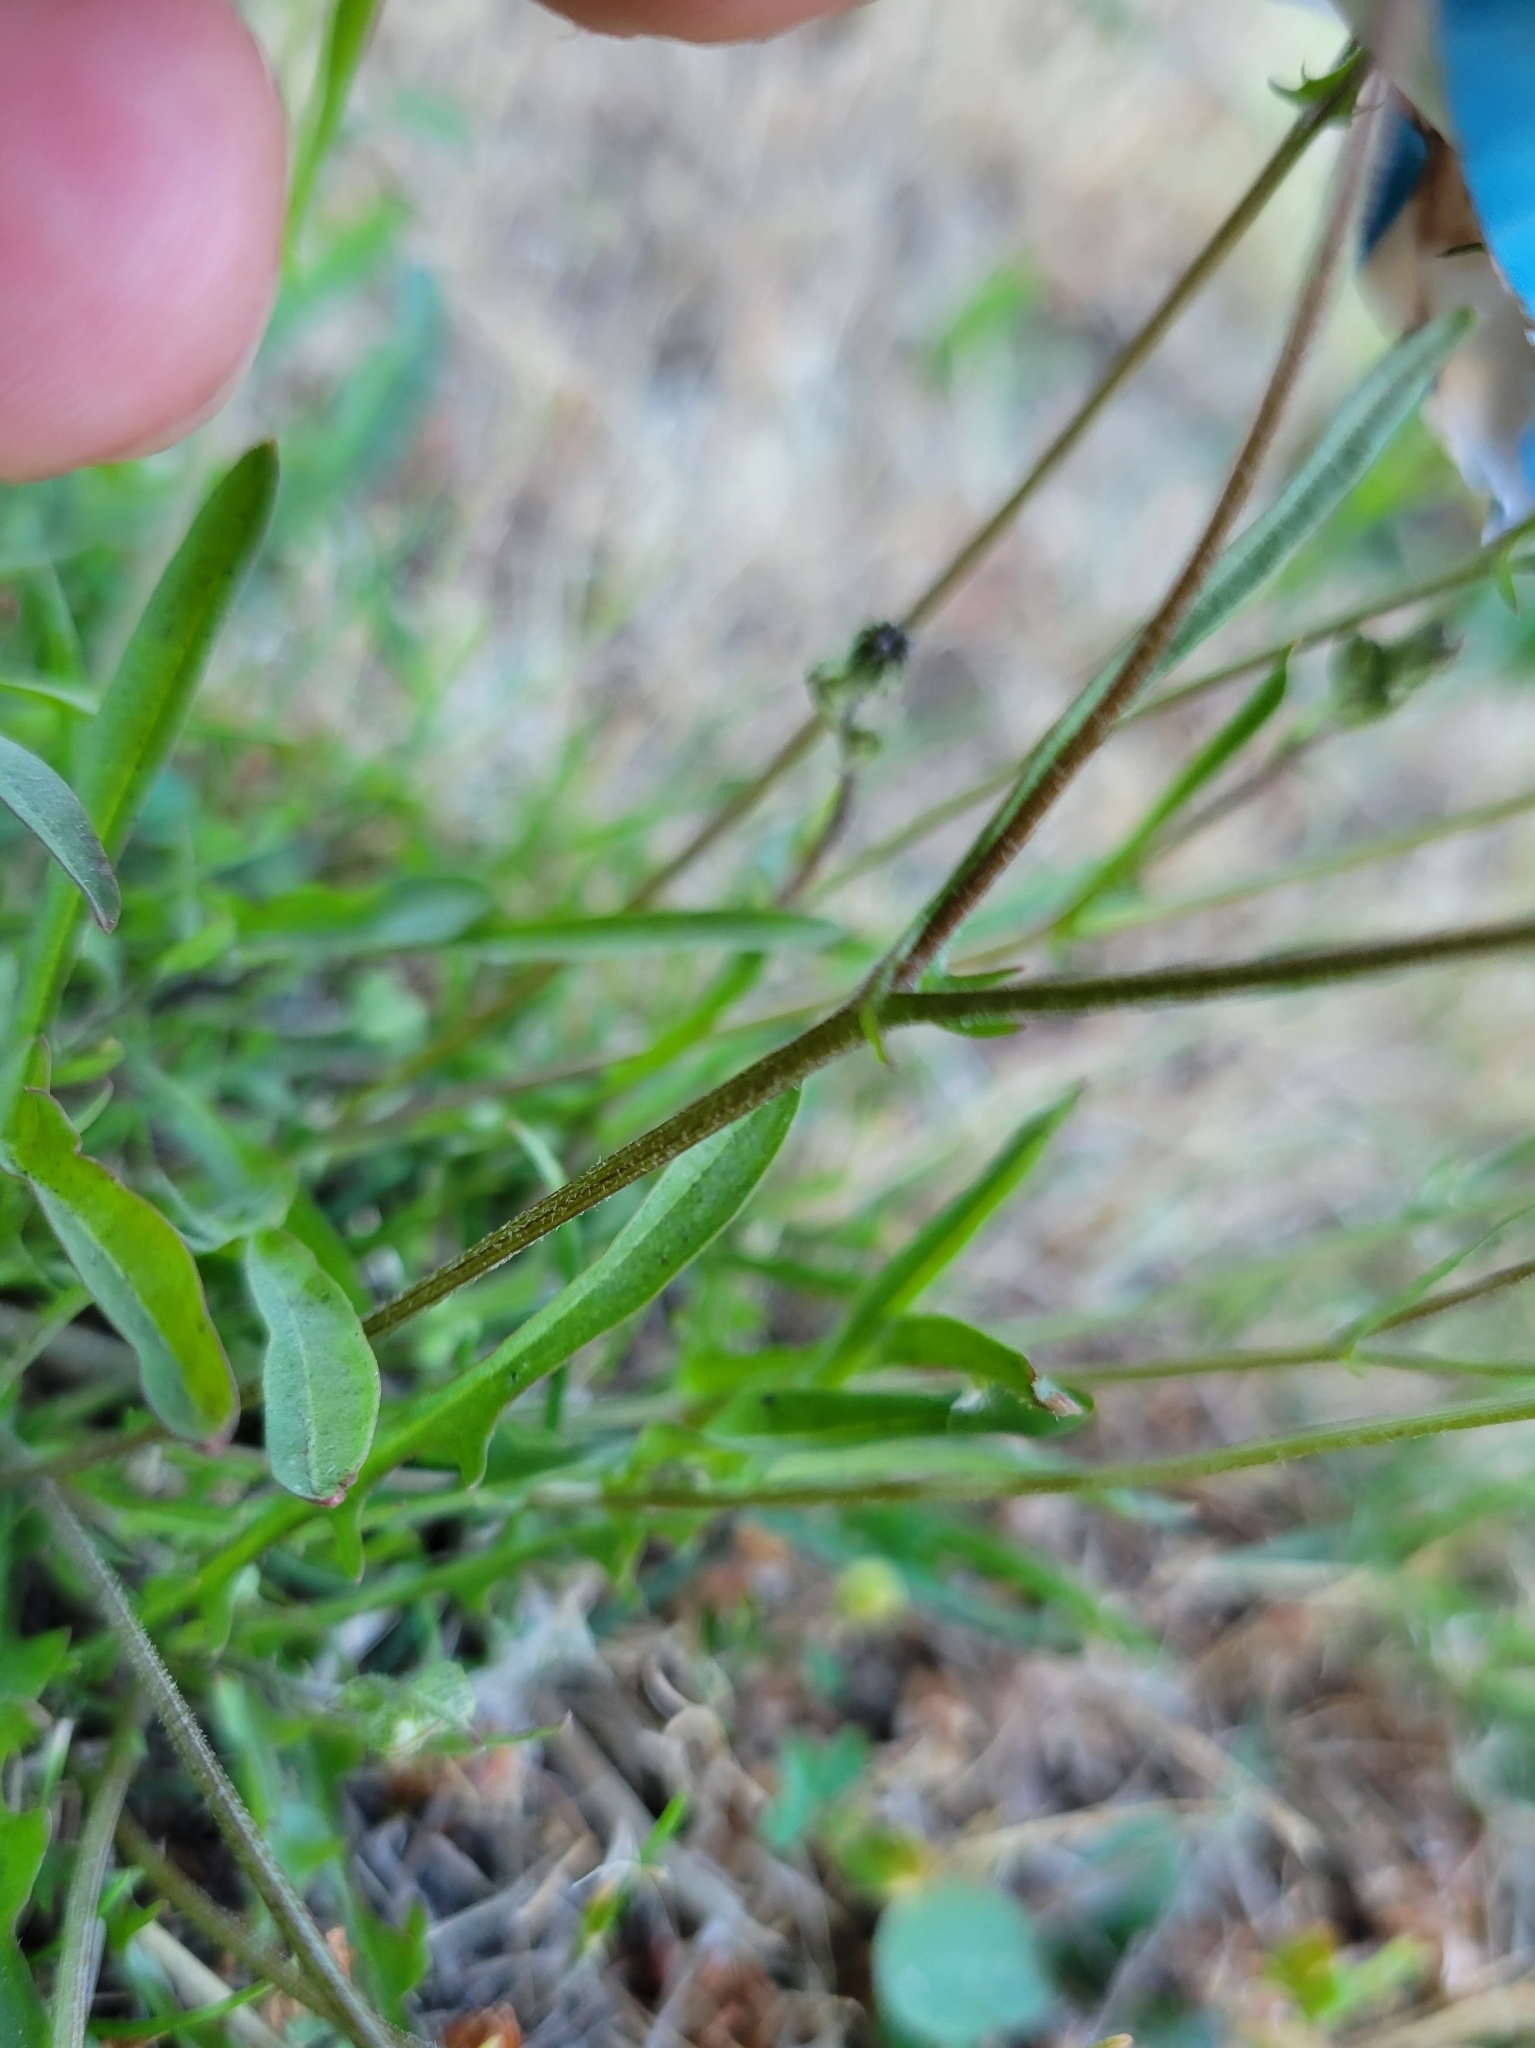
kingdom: Plantae
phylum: Tracheophyta
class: Magnoliopsida
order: Asterales
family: Asteraceae
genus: Crepis
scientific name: Crepis capillaris
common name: Smooth hawksbeard
